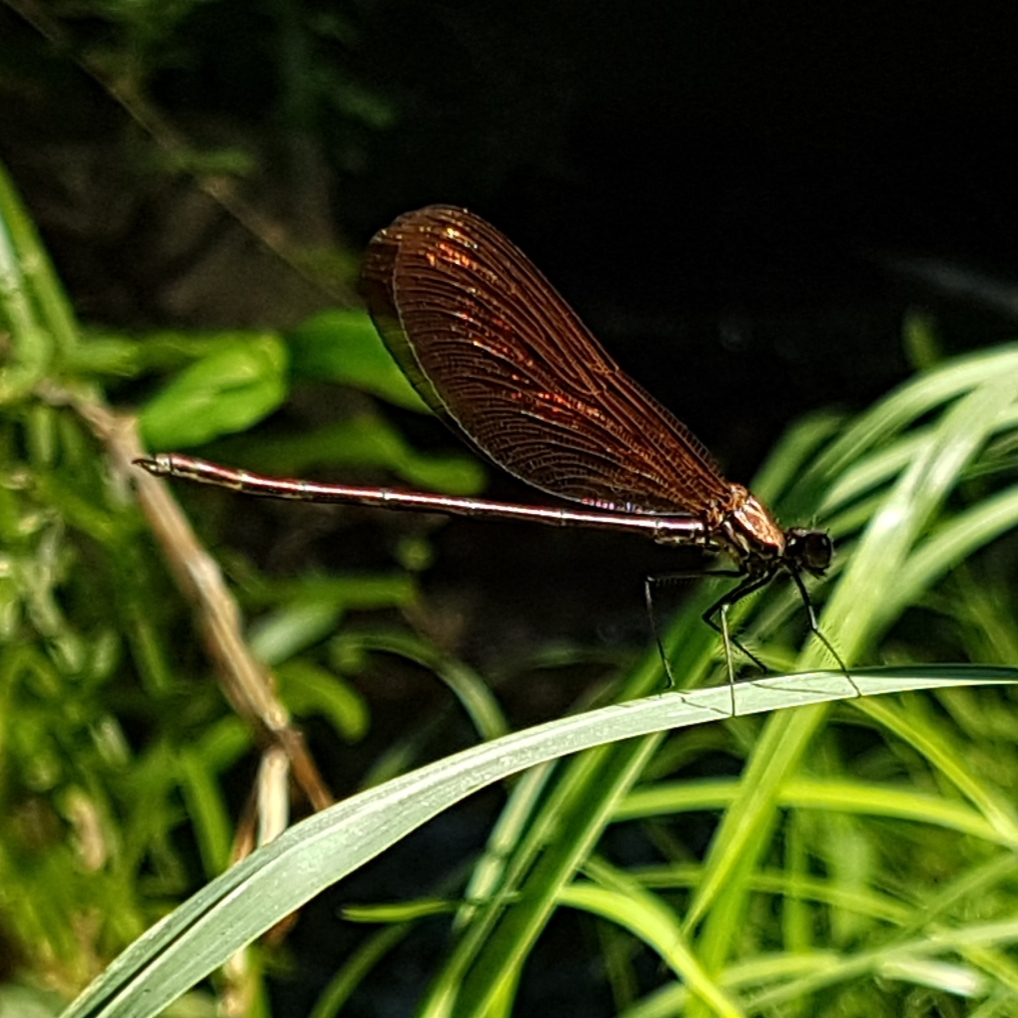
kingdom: Animalia
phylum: Arthropoda
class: Insecta
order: Odonata
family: Calopterygidae
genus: Calopteryx
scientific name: Calopteryx haemorrhoidalis
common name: Copper demoiselle
